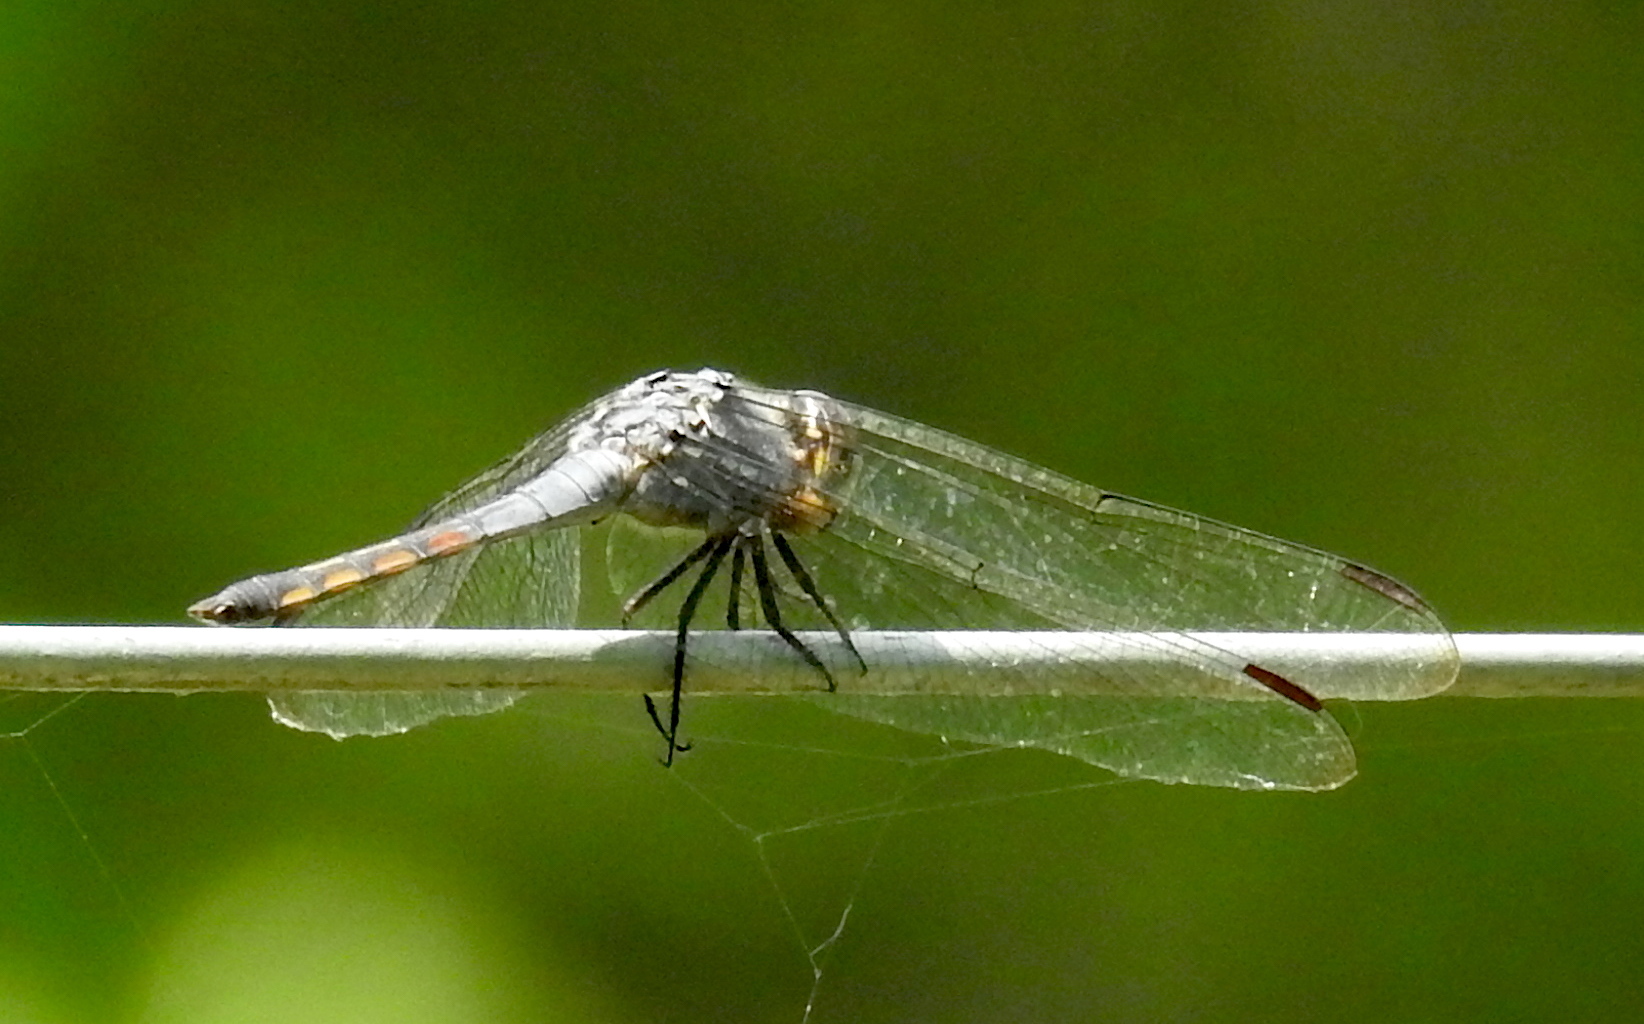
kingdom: Animalia
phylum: Arthropoda
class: Insecta
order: Odonata
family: Libellulidae
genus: Potamarcha
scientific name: Potamarcha congener
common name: Blue chaser
